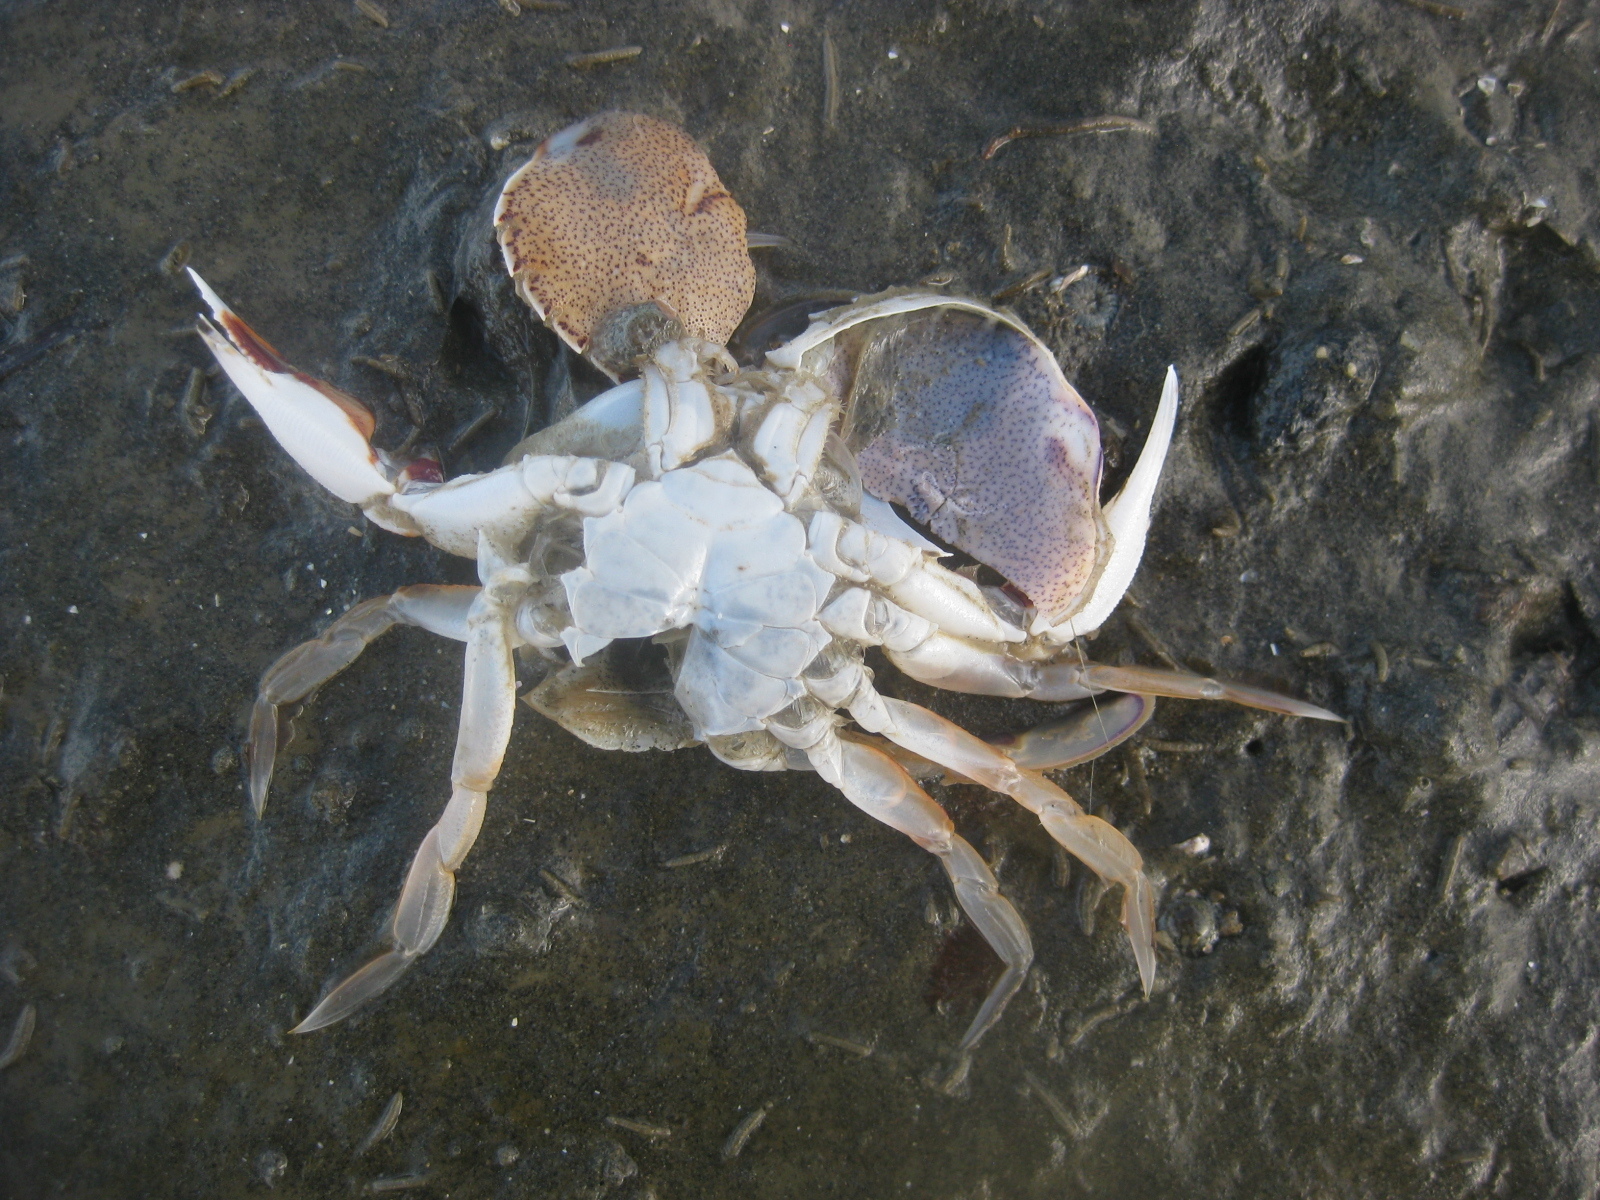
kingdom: Animalia
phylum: Arthropoda
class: Malacostraca
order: Decapoda
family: Ovalipidae
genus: Ovalipes
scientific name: Ovalipes catharus
